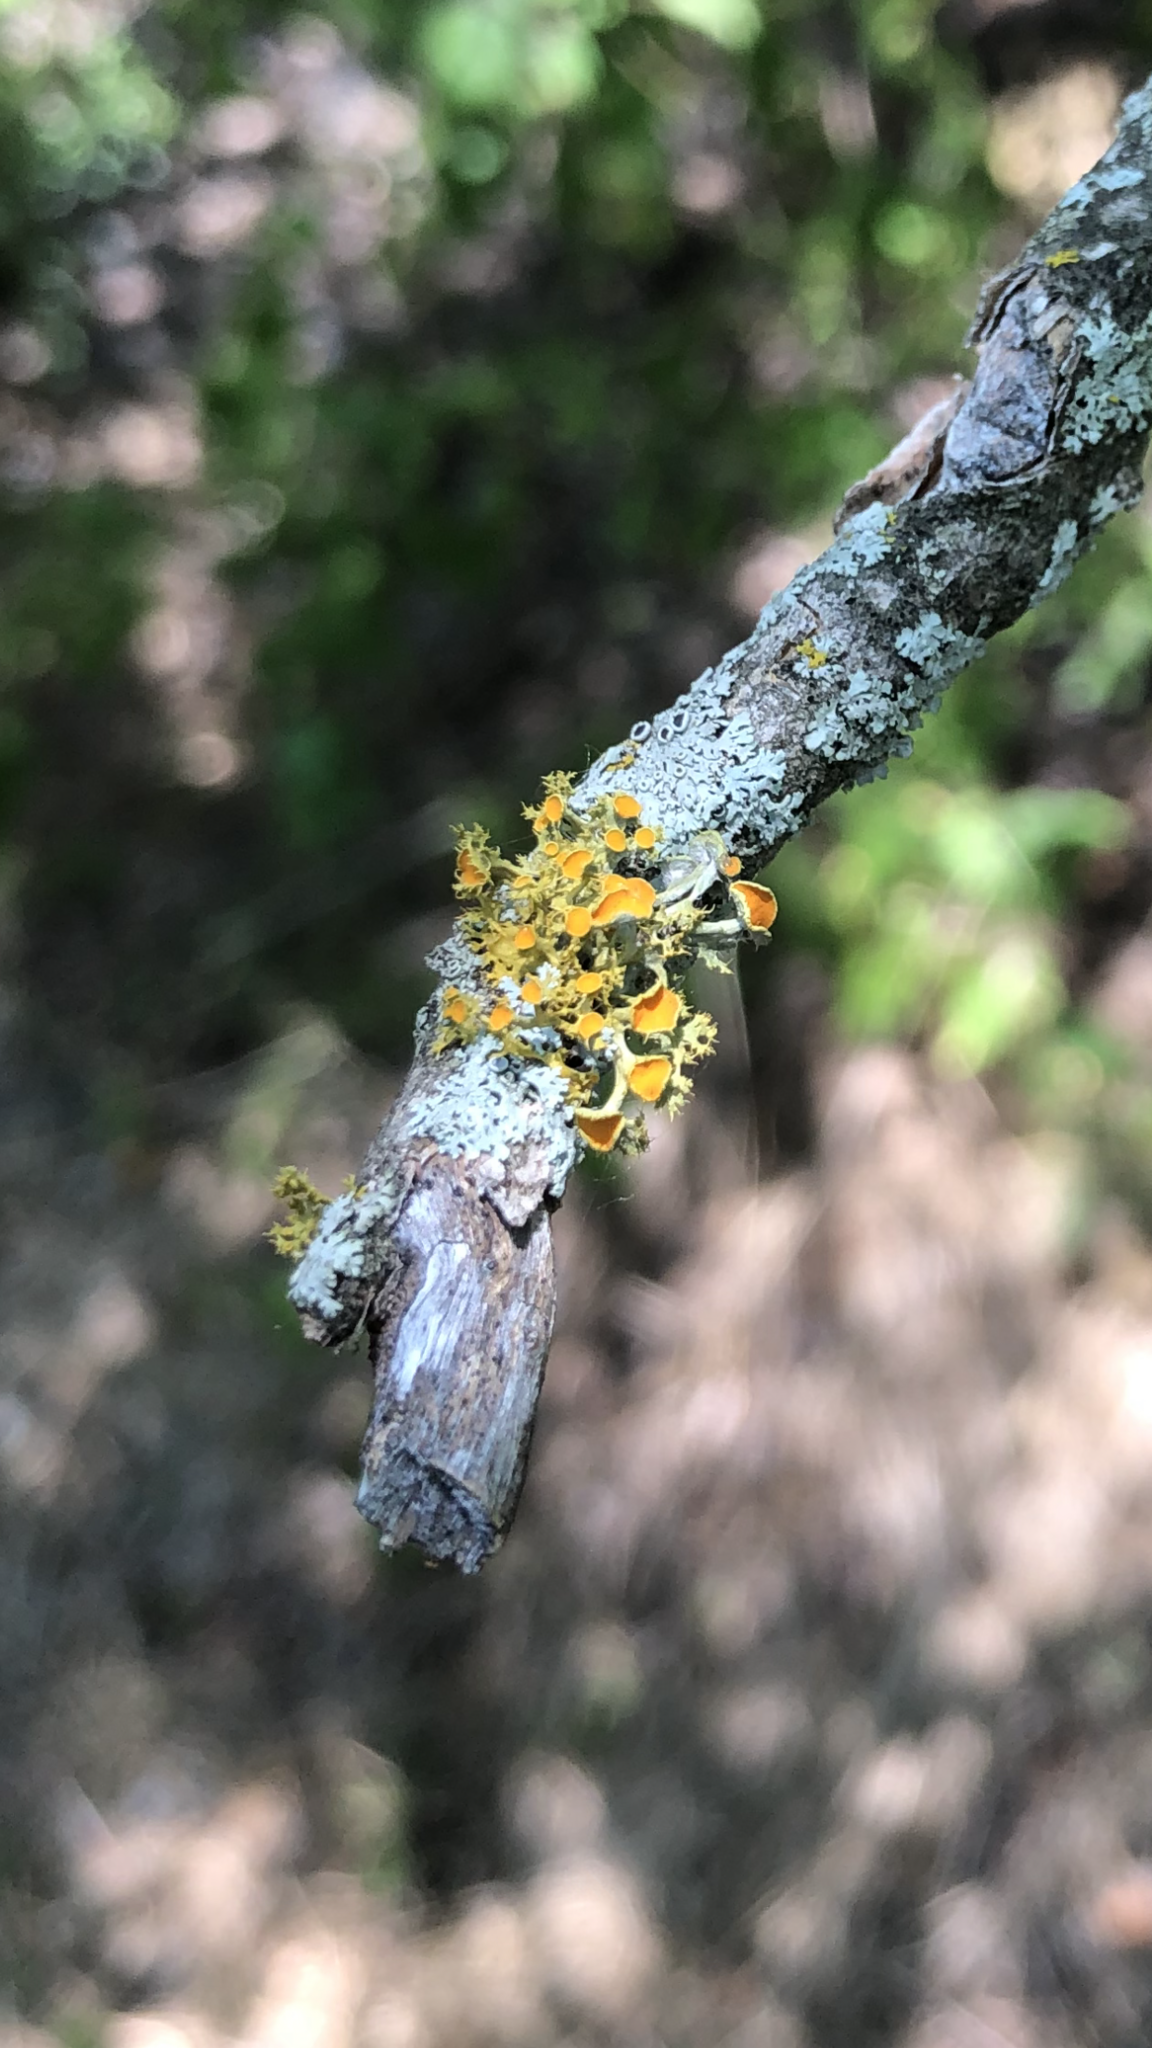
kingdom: Fungi
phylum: Ascomycota
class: Lecanoromycetes
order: Teloschistales
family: Teloschistaceae
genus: Niorma
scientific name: Niorma chrysophthalma
